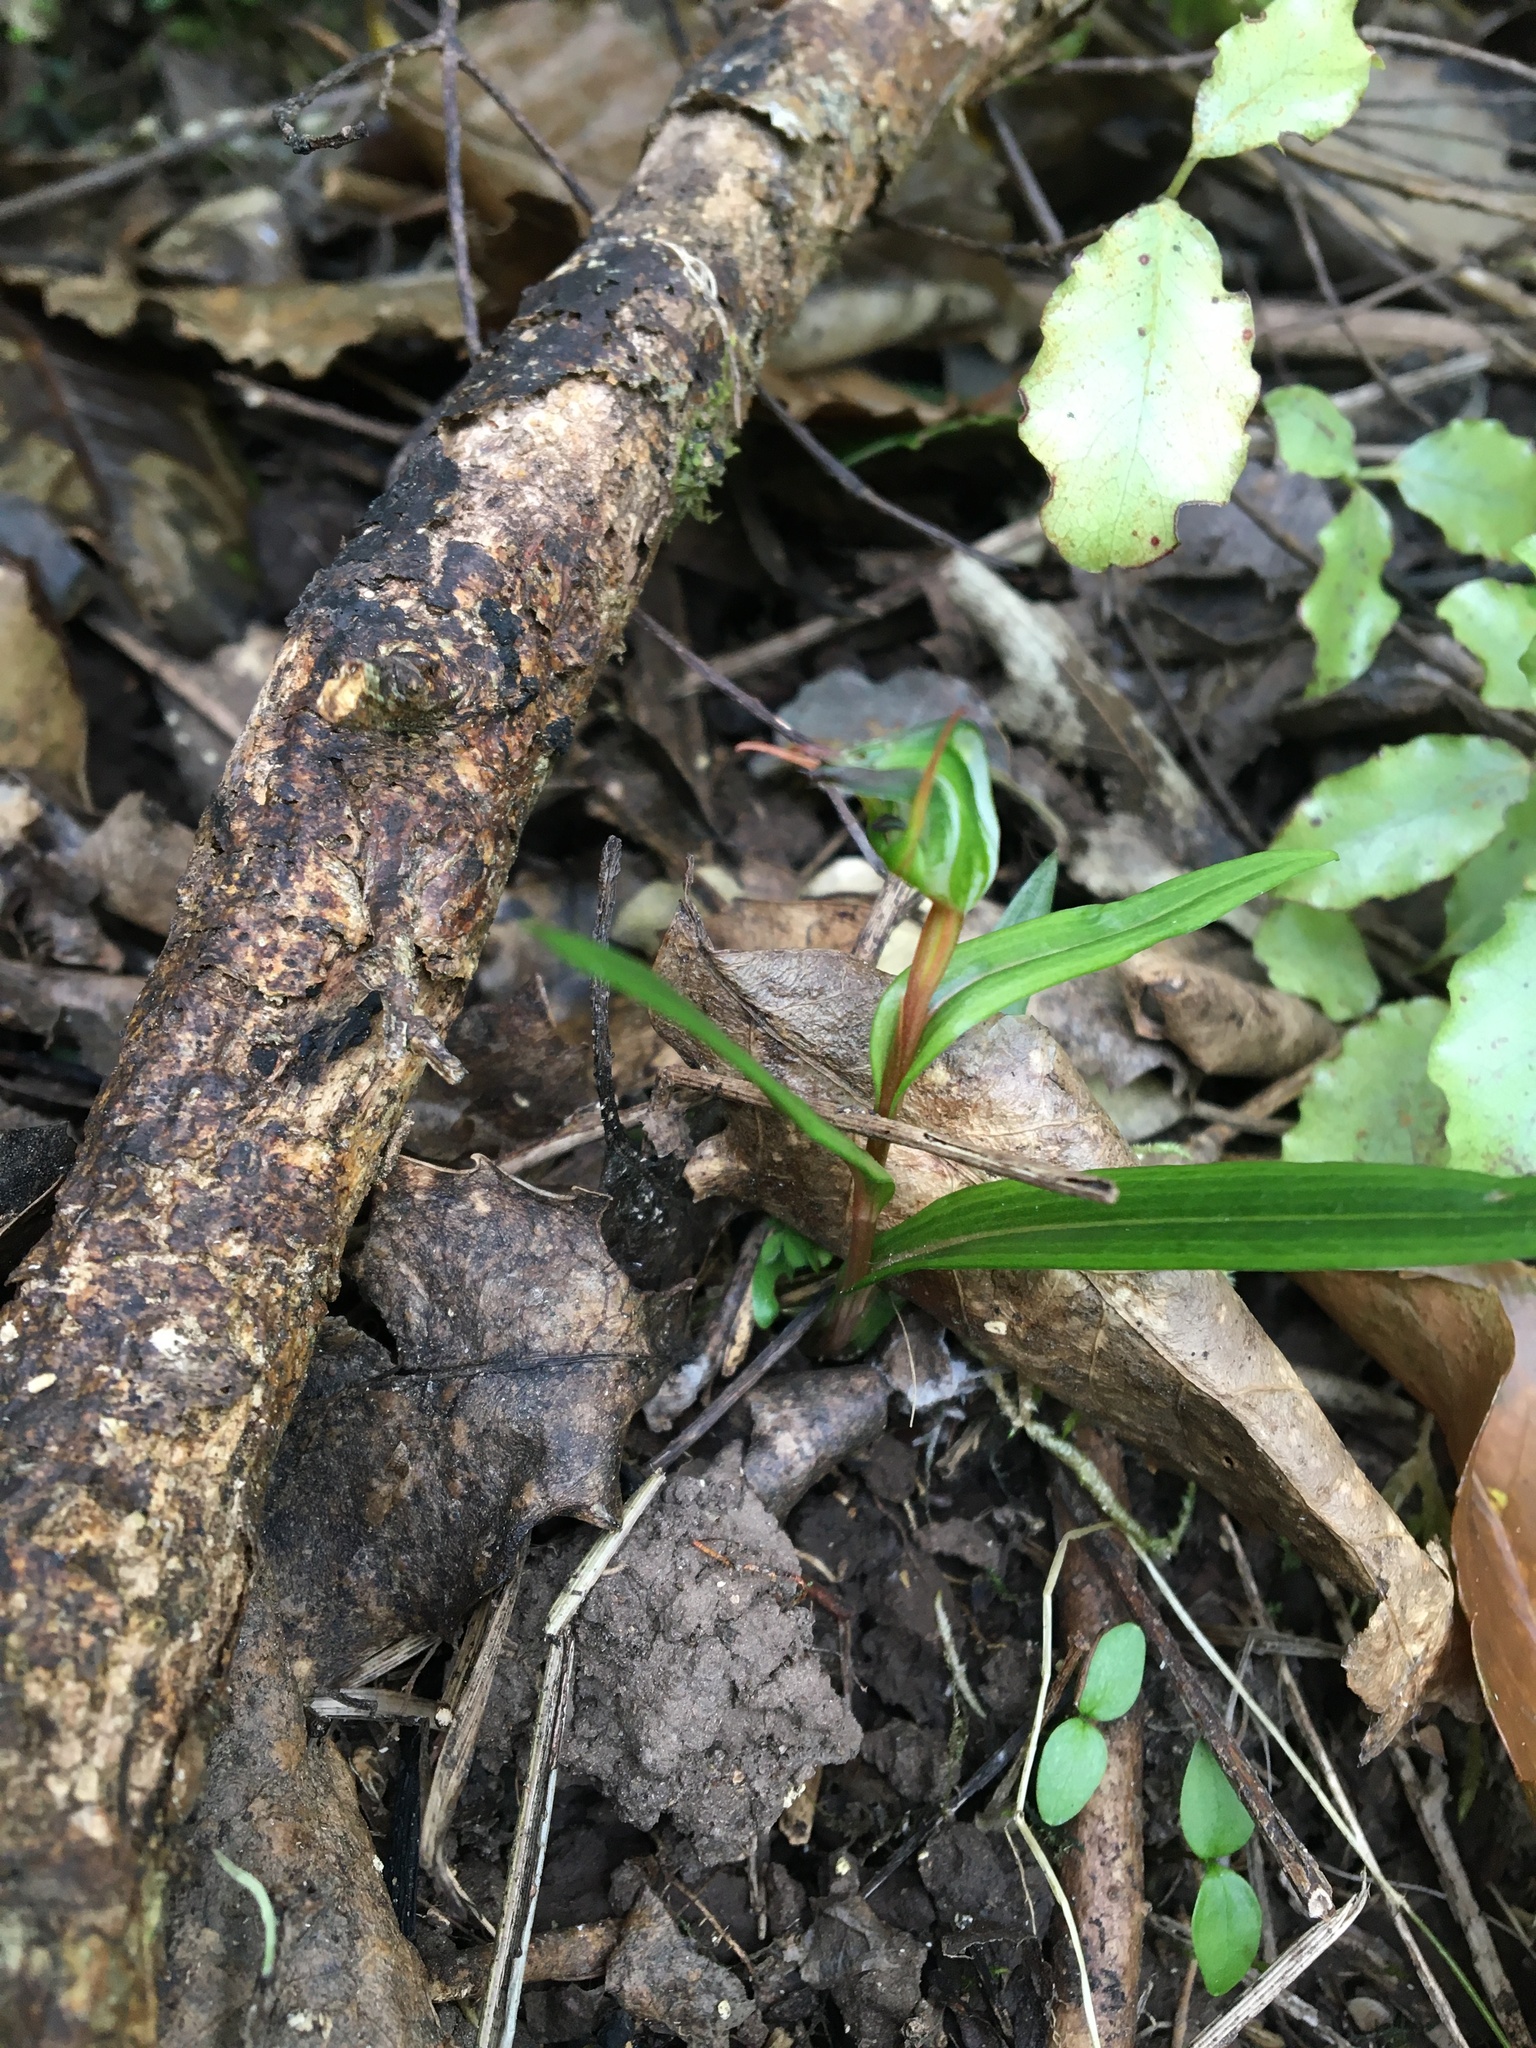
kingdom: Plantae
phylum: Tracheophyta
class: Liliopsida
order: Asparagales
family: Orchidaceae
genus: Pterostylis
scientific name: Pterostylis graminea
